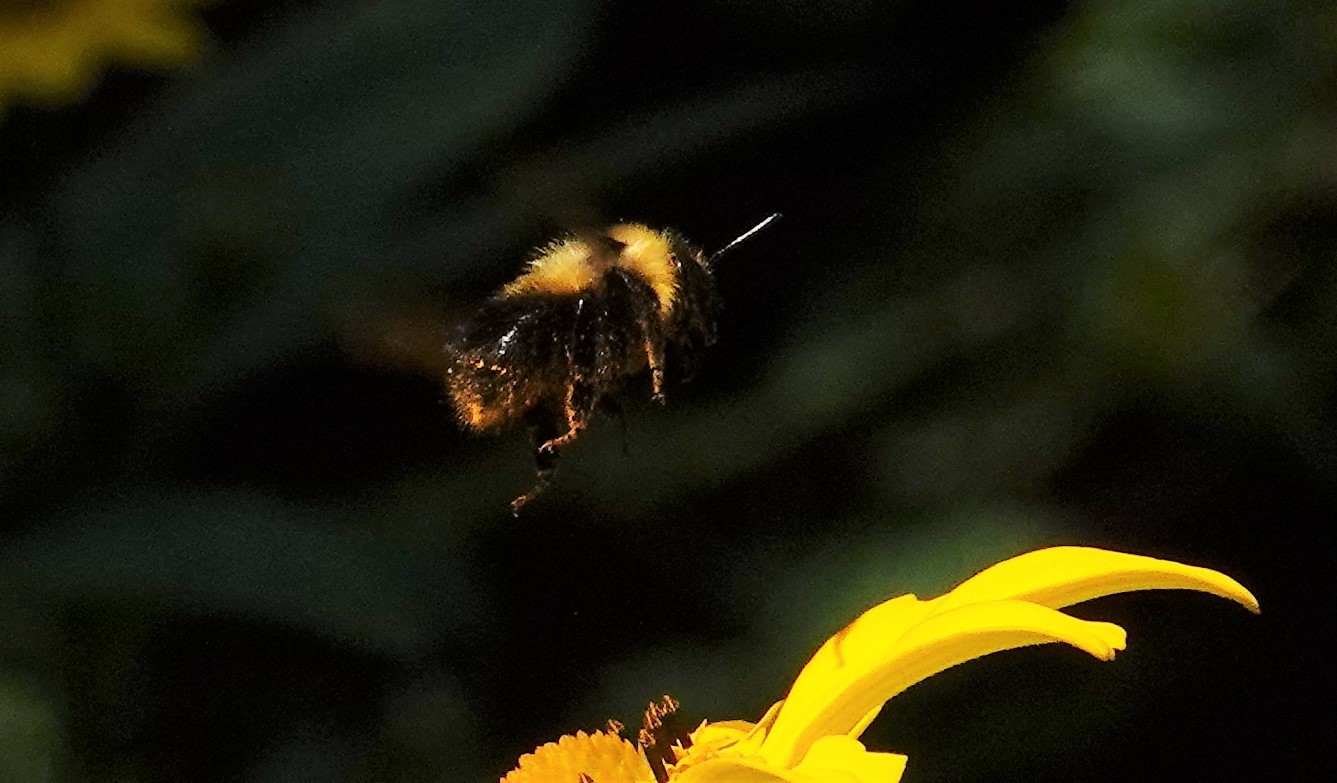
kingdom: Animalia
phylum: Arthropoda
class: Insecta
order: Hymenoptera
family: Apidae
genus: Bombus
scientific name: Bombus rufocinctus
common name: Red-belted bumble bee
